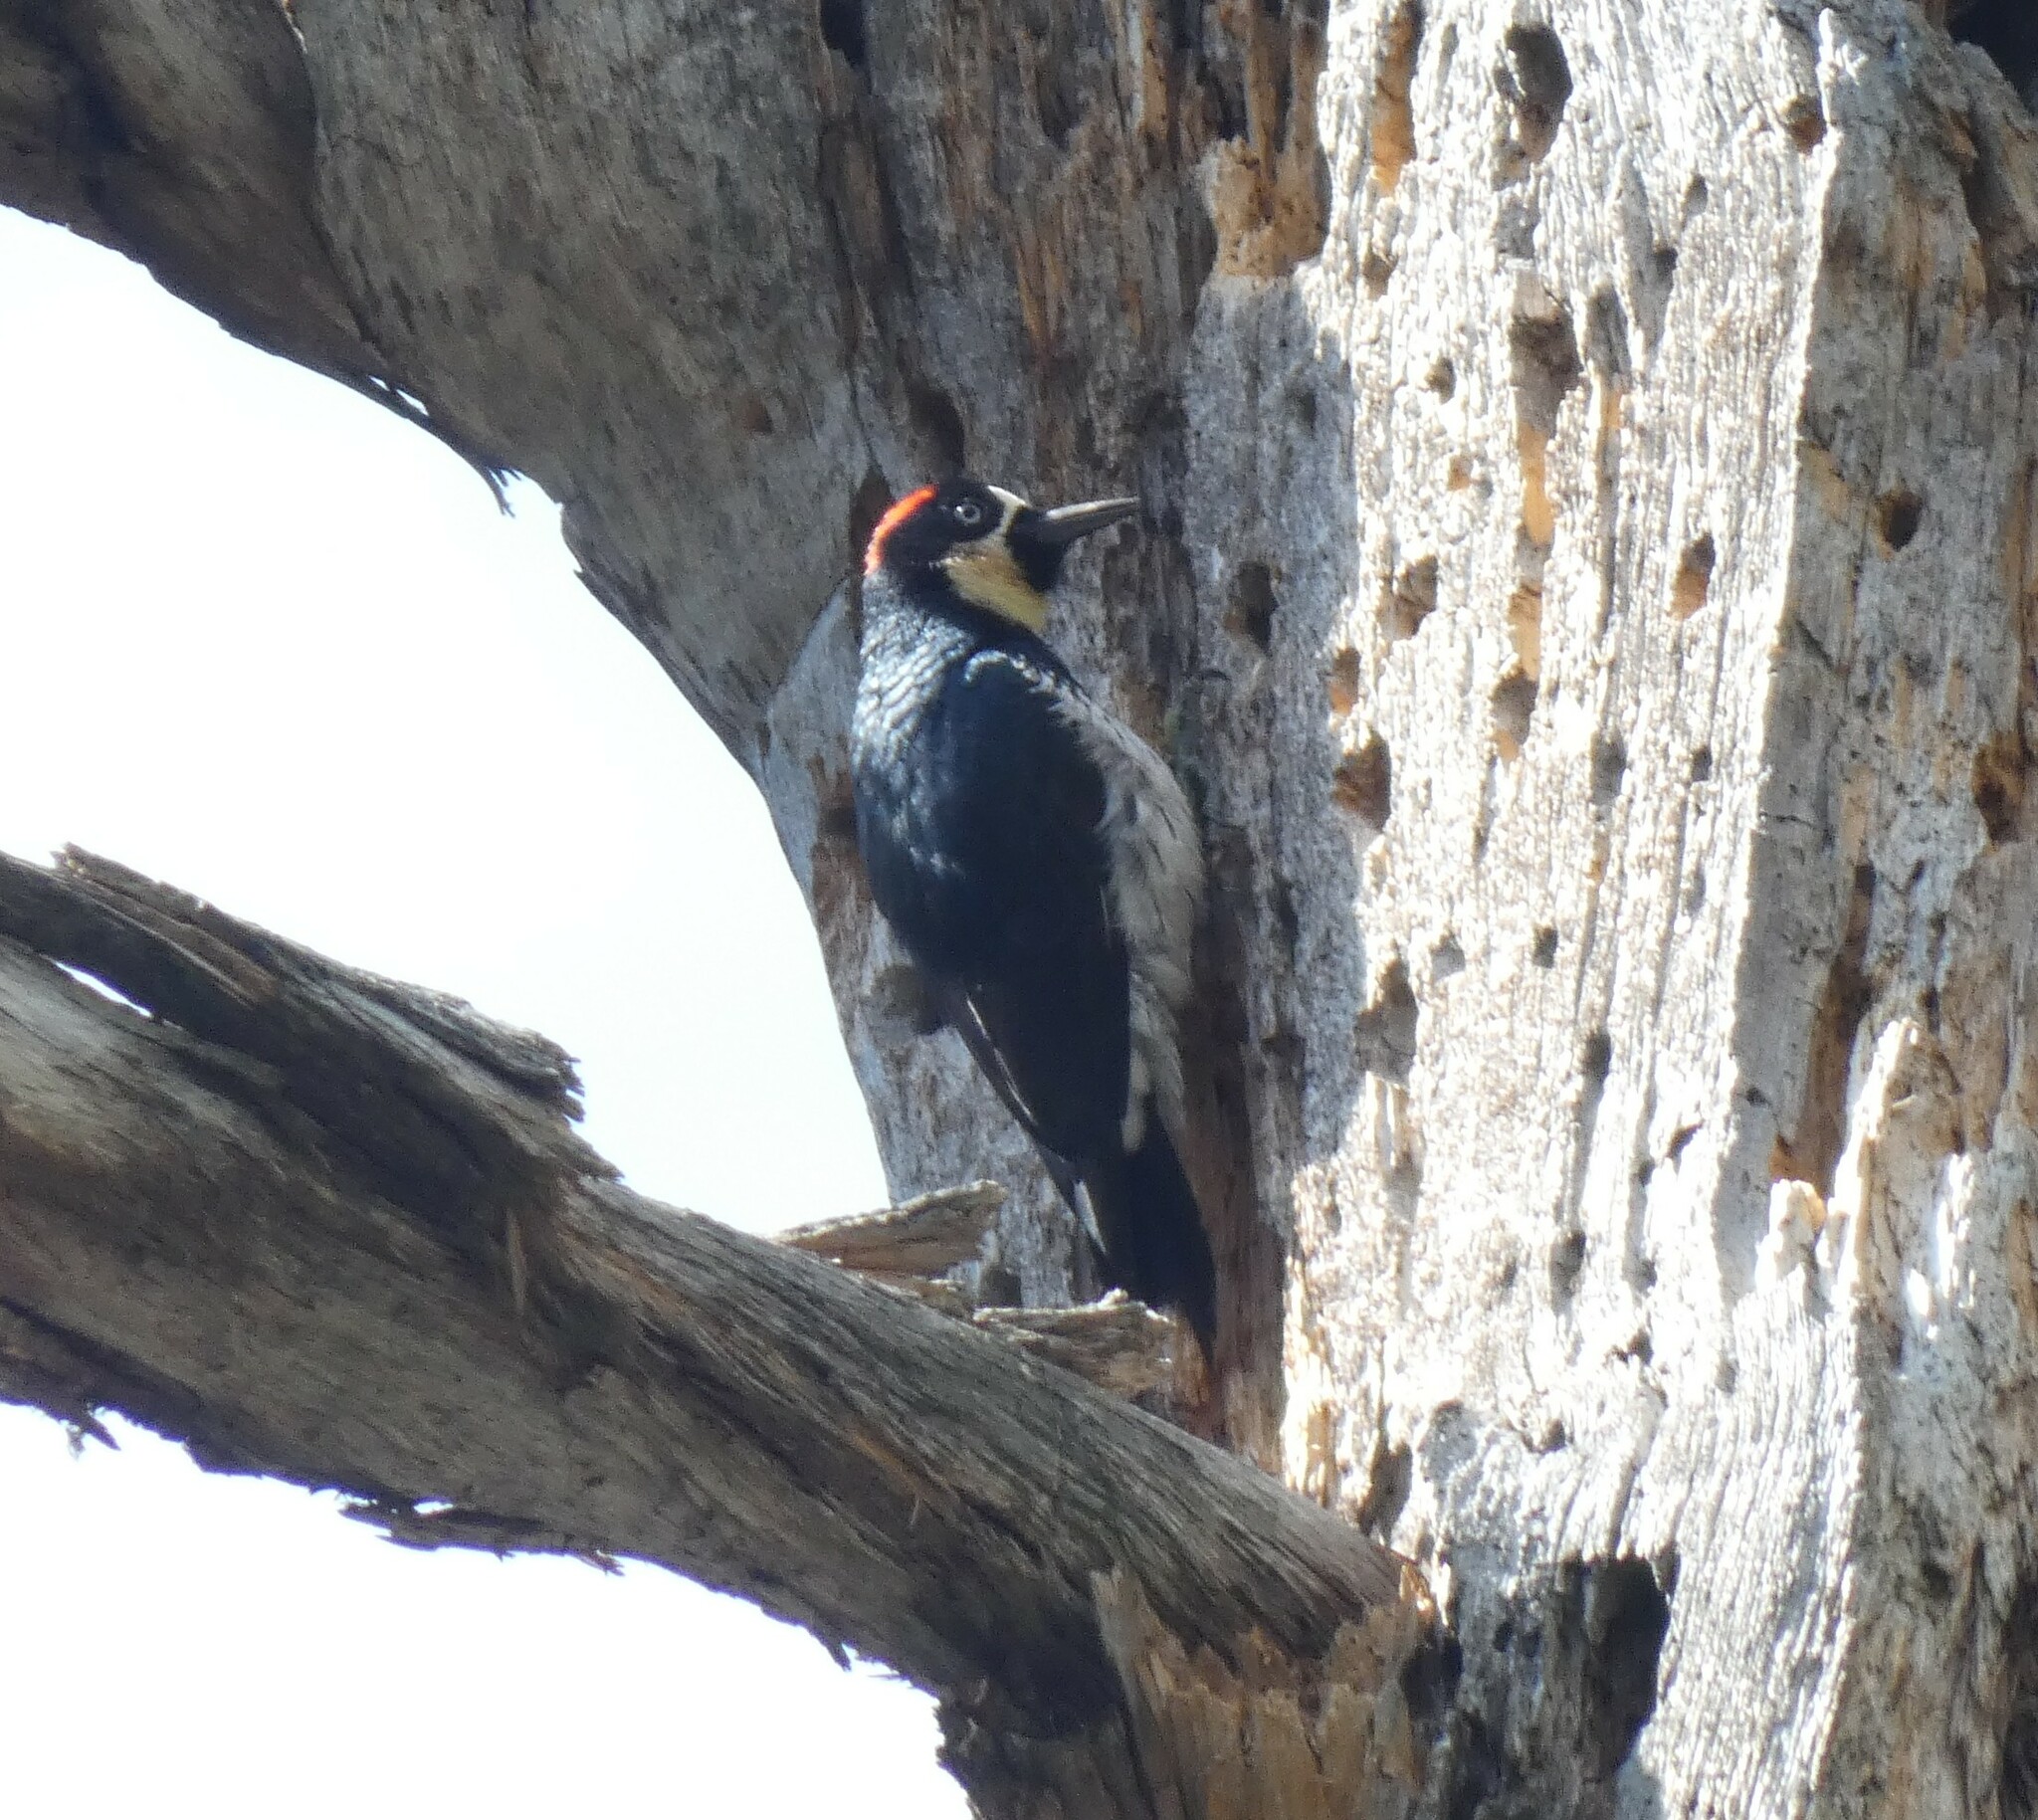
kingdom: Animalia
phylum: Chordata
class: Aves
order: Piciformes
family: Picidae
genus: Melanerpes
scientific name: Melanerpes formicivorus
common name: Acorn woodpecker
